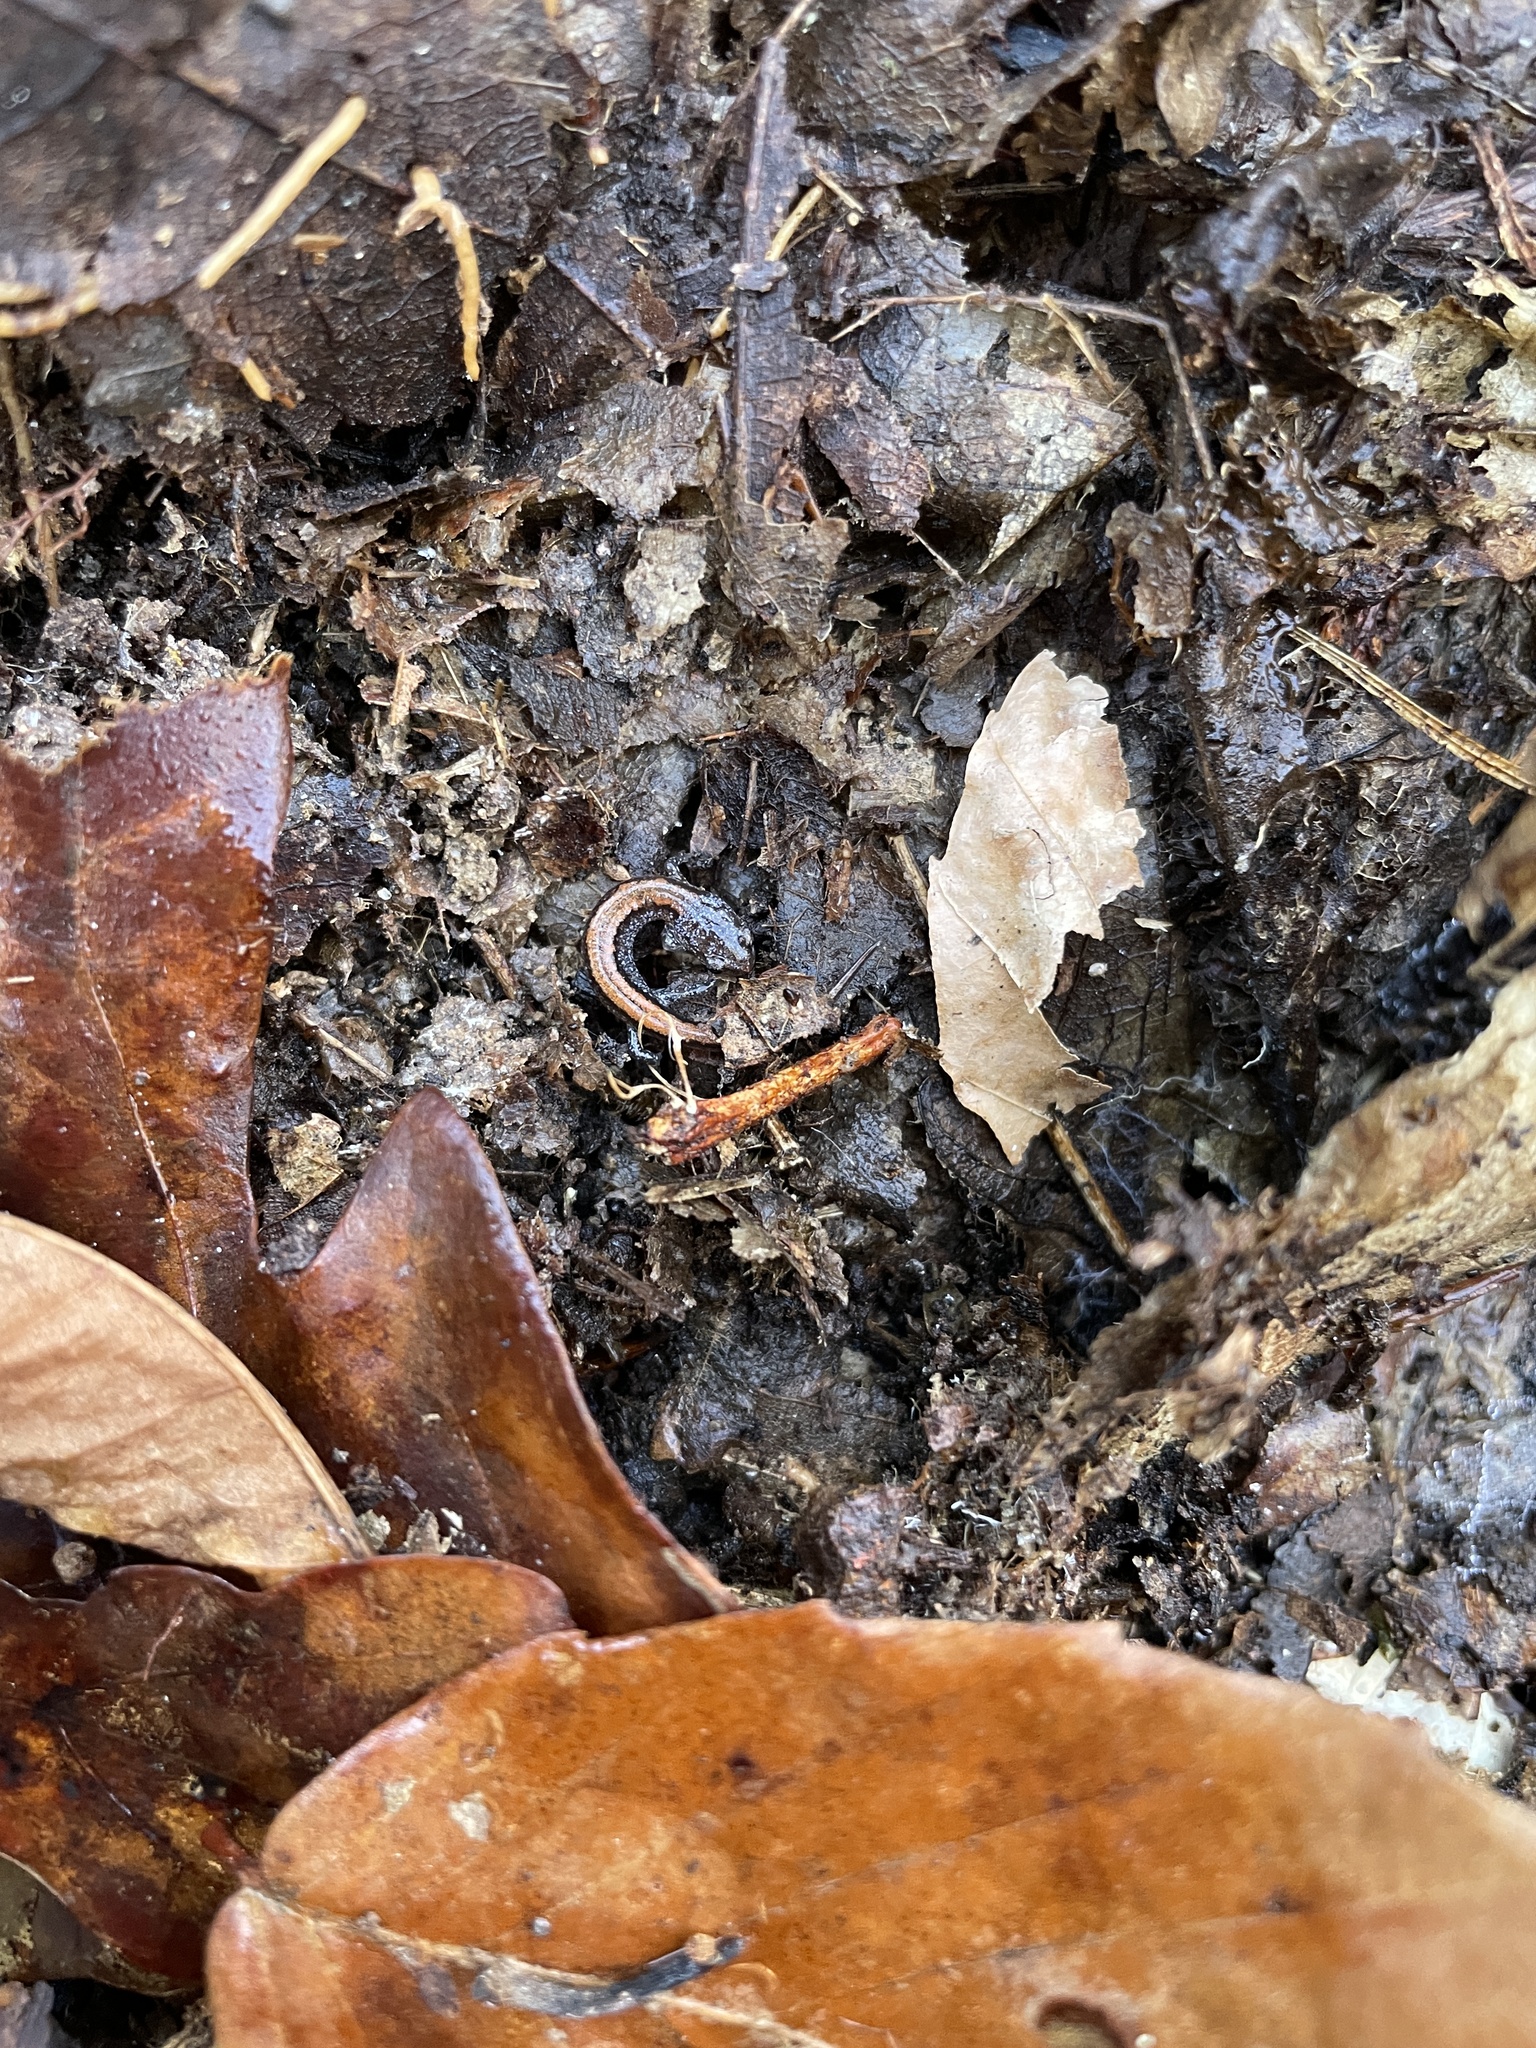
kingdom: Animalia
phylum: Chordata
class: Amphibia
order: Caudata
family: Plethodontidae
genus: Plethodon
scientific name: Plethodon websteri
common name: Webster's salamander
